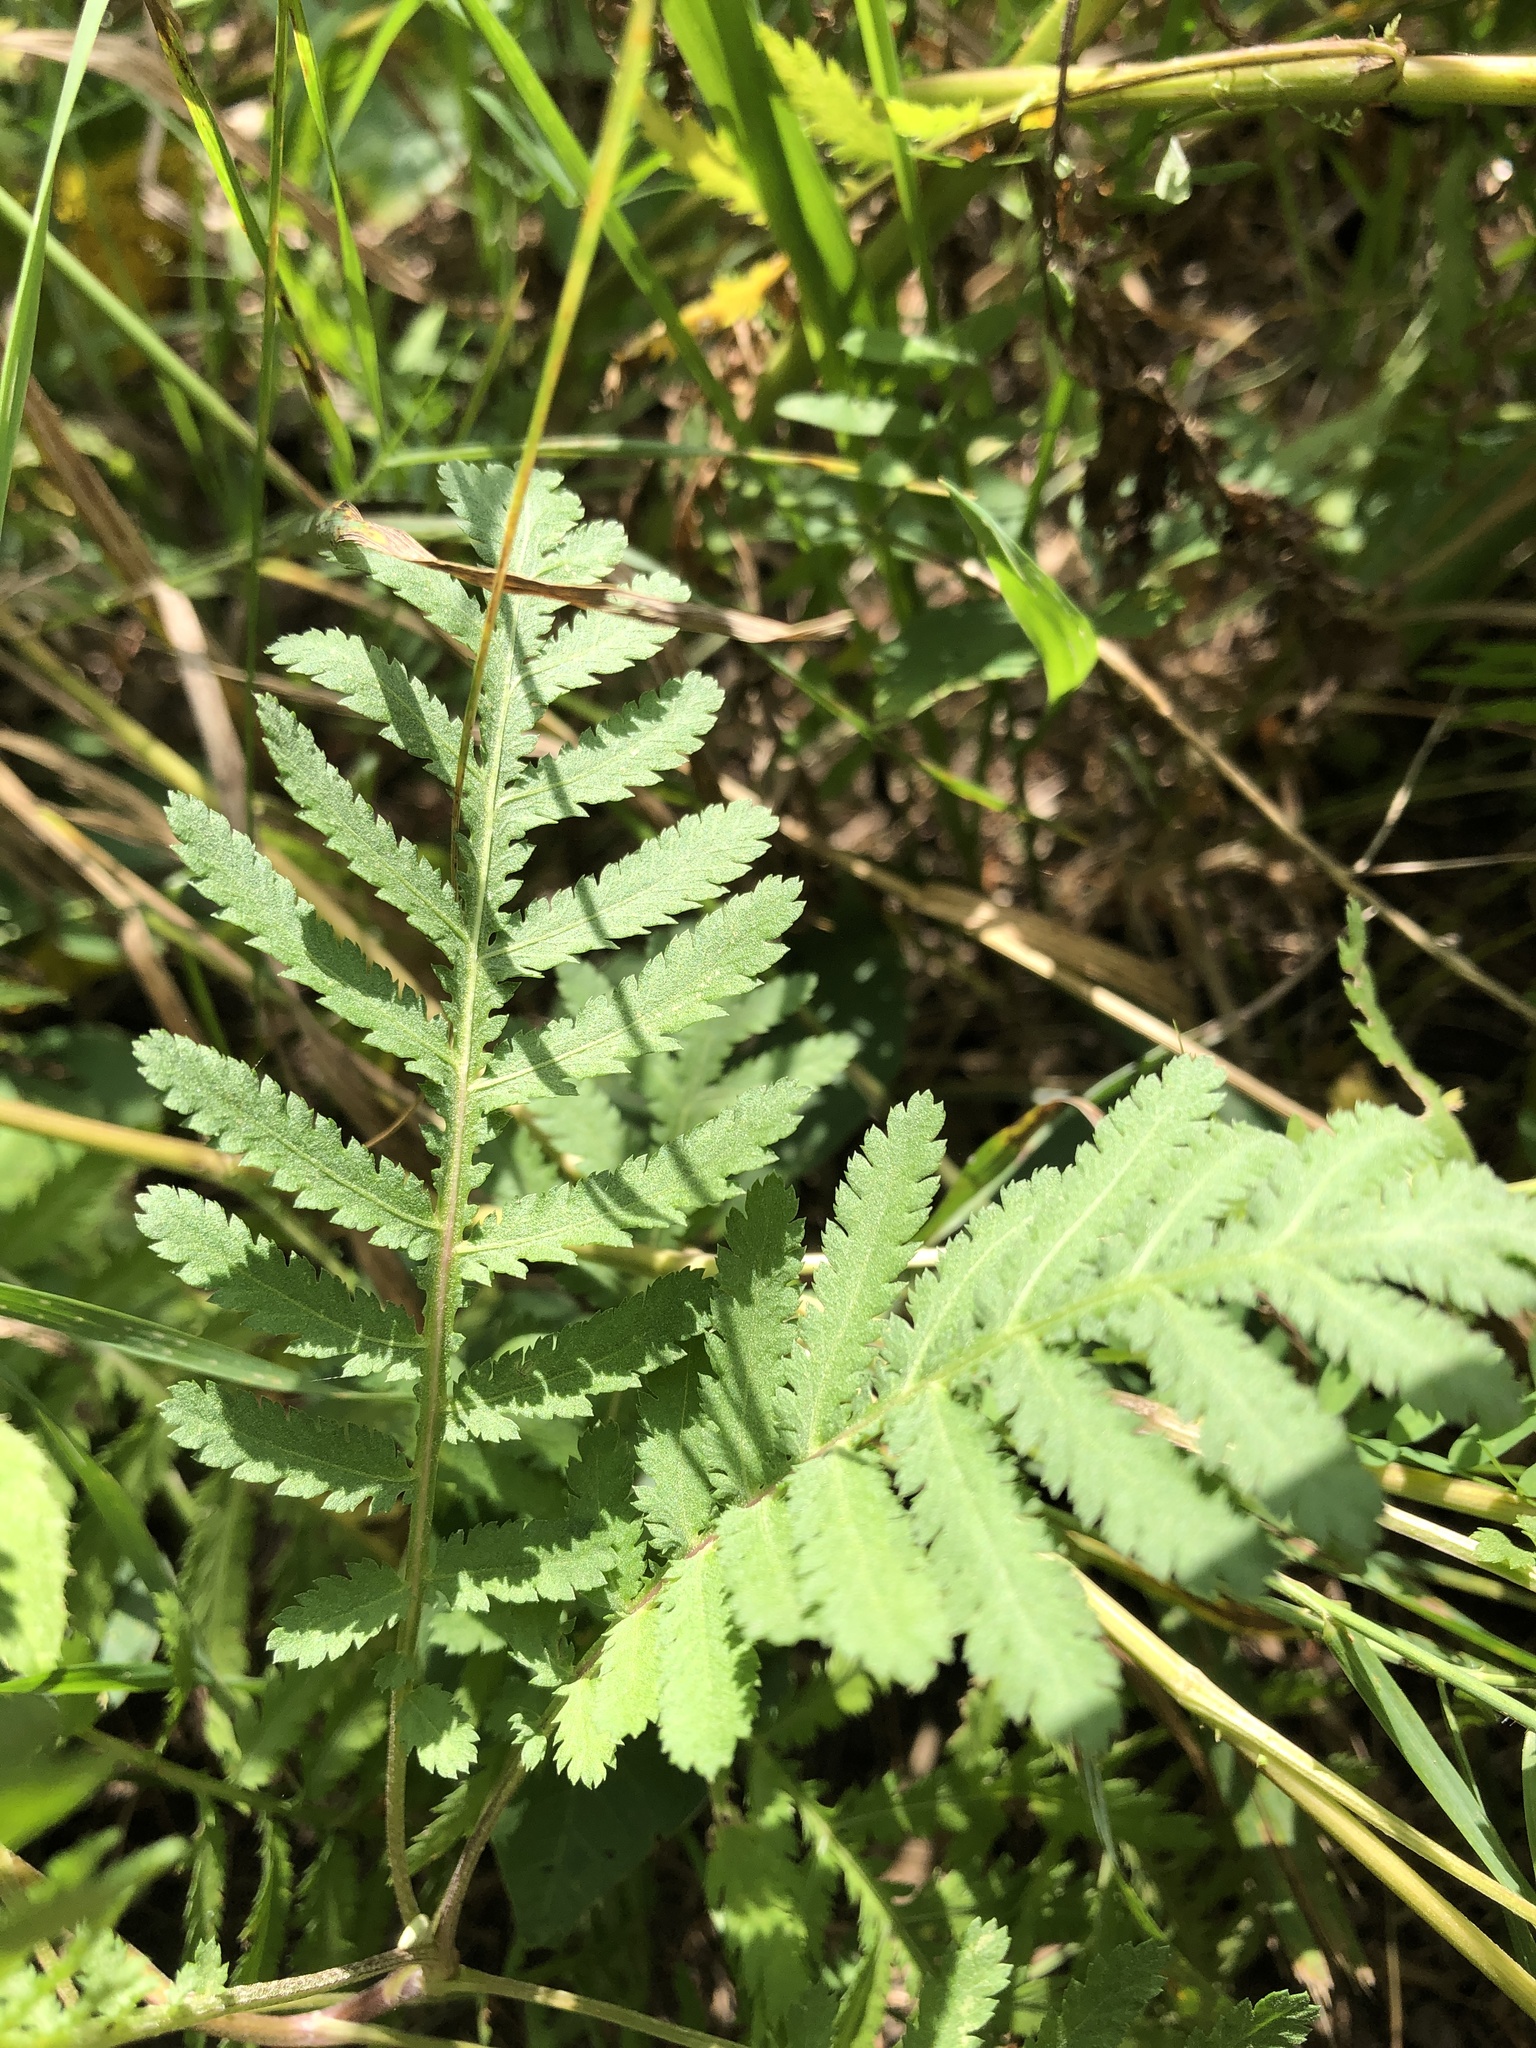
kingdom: Plantae
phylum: Tracheophyta
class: Magnoliopsida
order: Asterales
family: Asteraceae
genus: Tanacetum
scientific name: Tanacetum vulgare
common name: Common tansy
